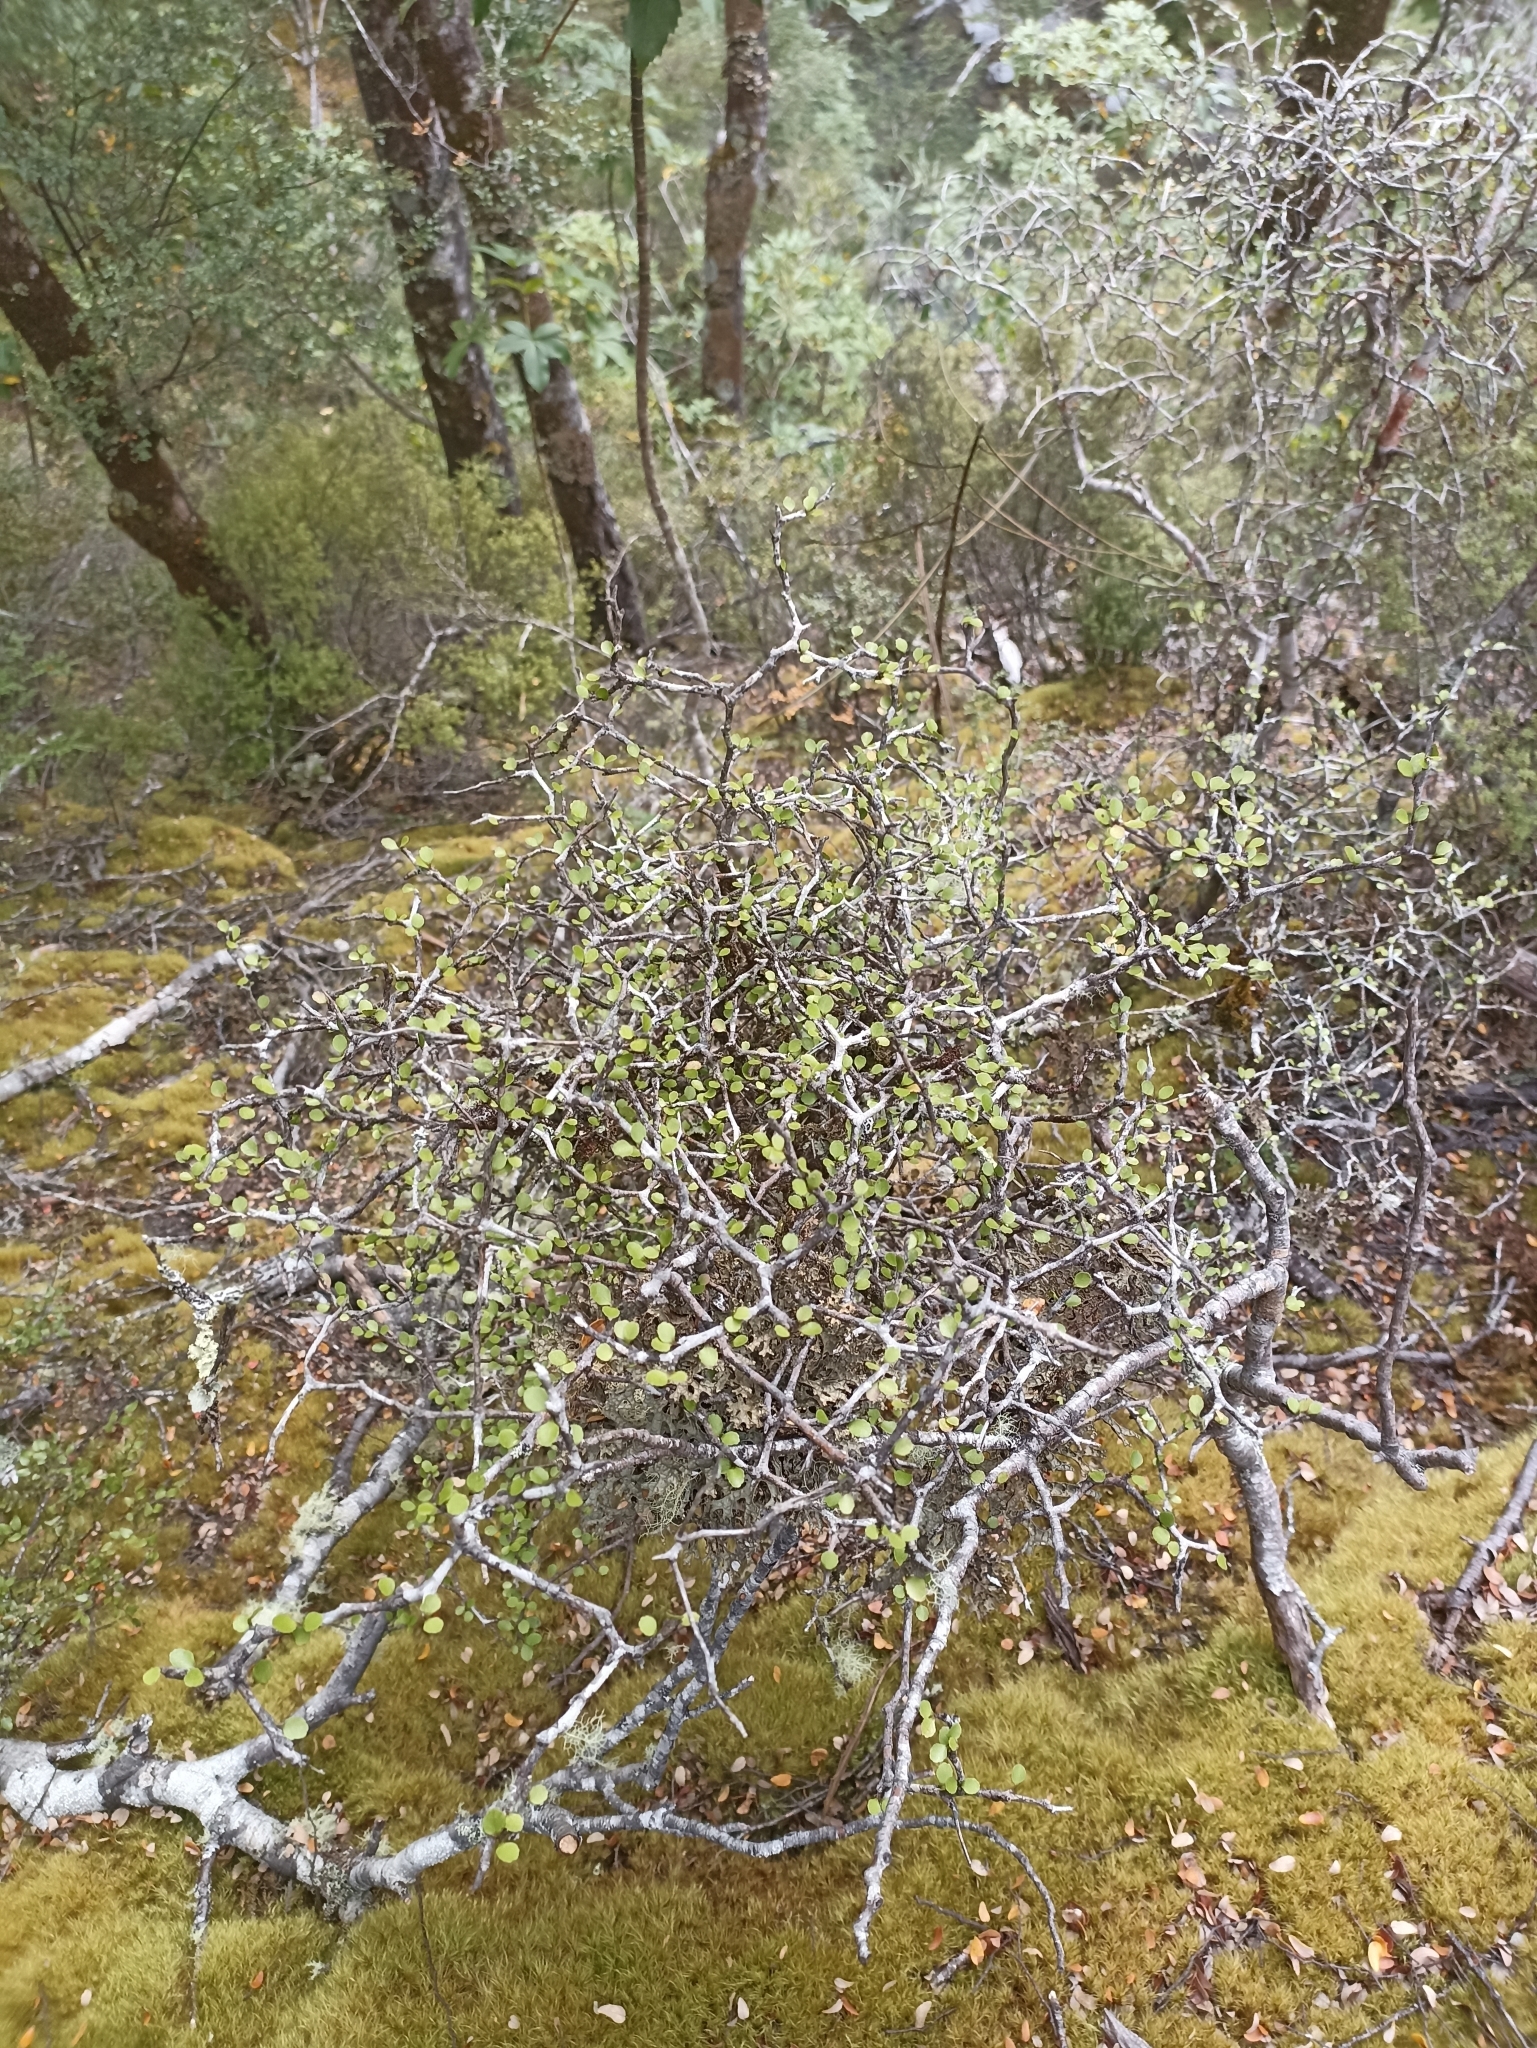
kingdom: Plantae
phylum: Tracheophyta
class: Magnoliopsida
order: Apiales
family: Araliaceae
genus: Raukaua
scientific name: Raukaua anomalus
